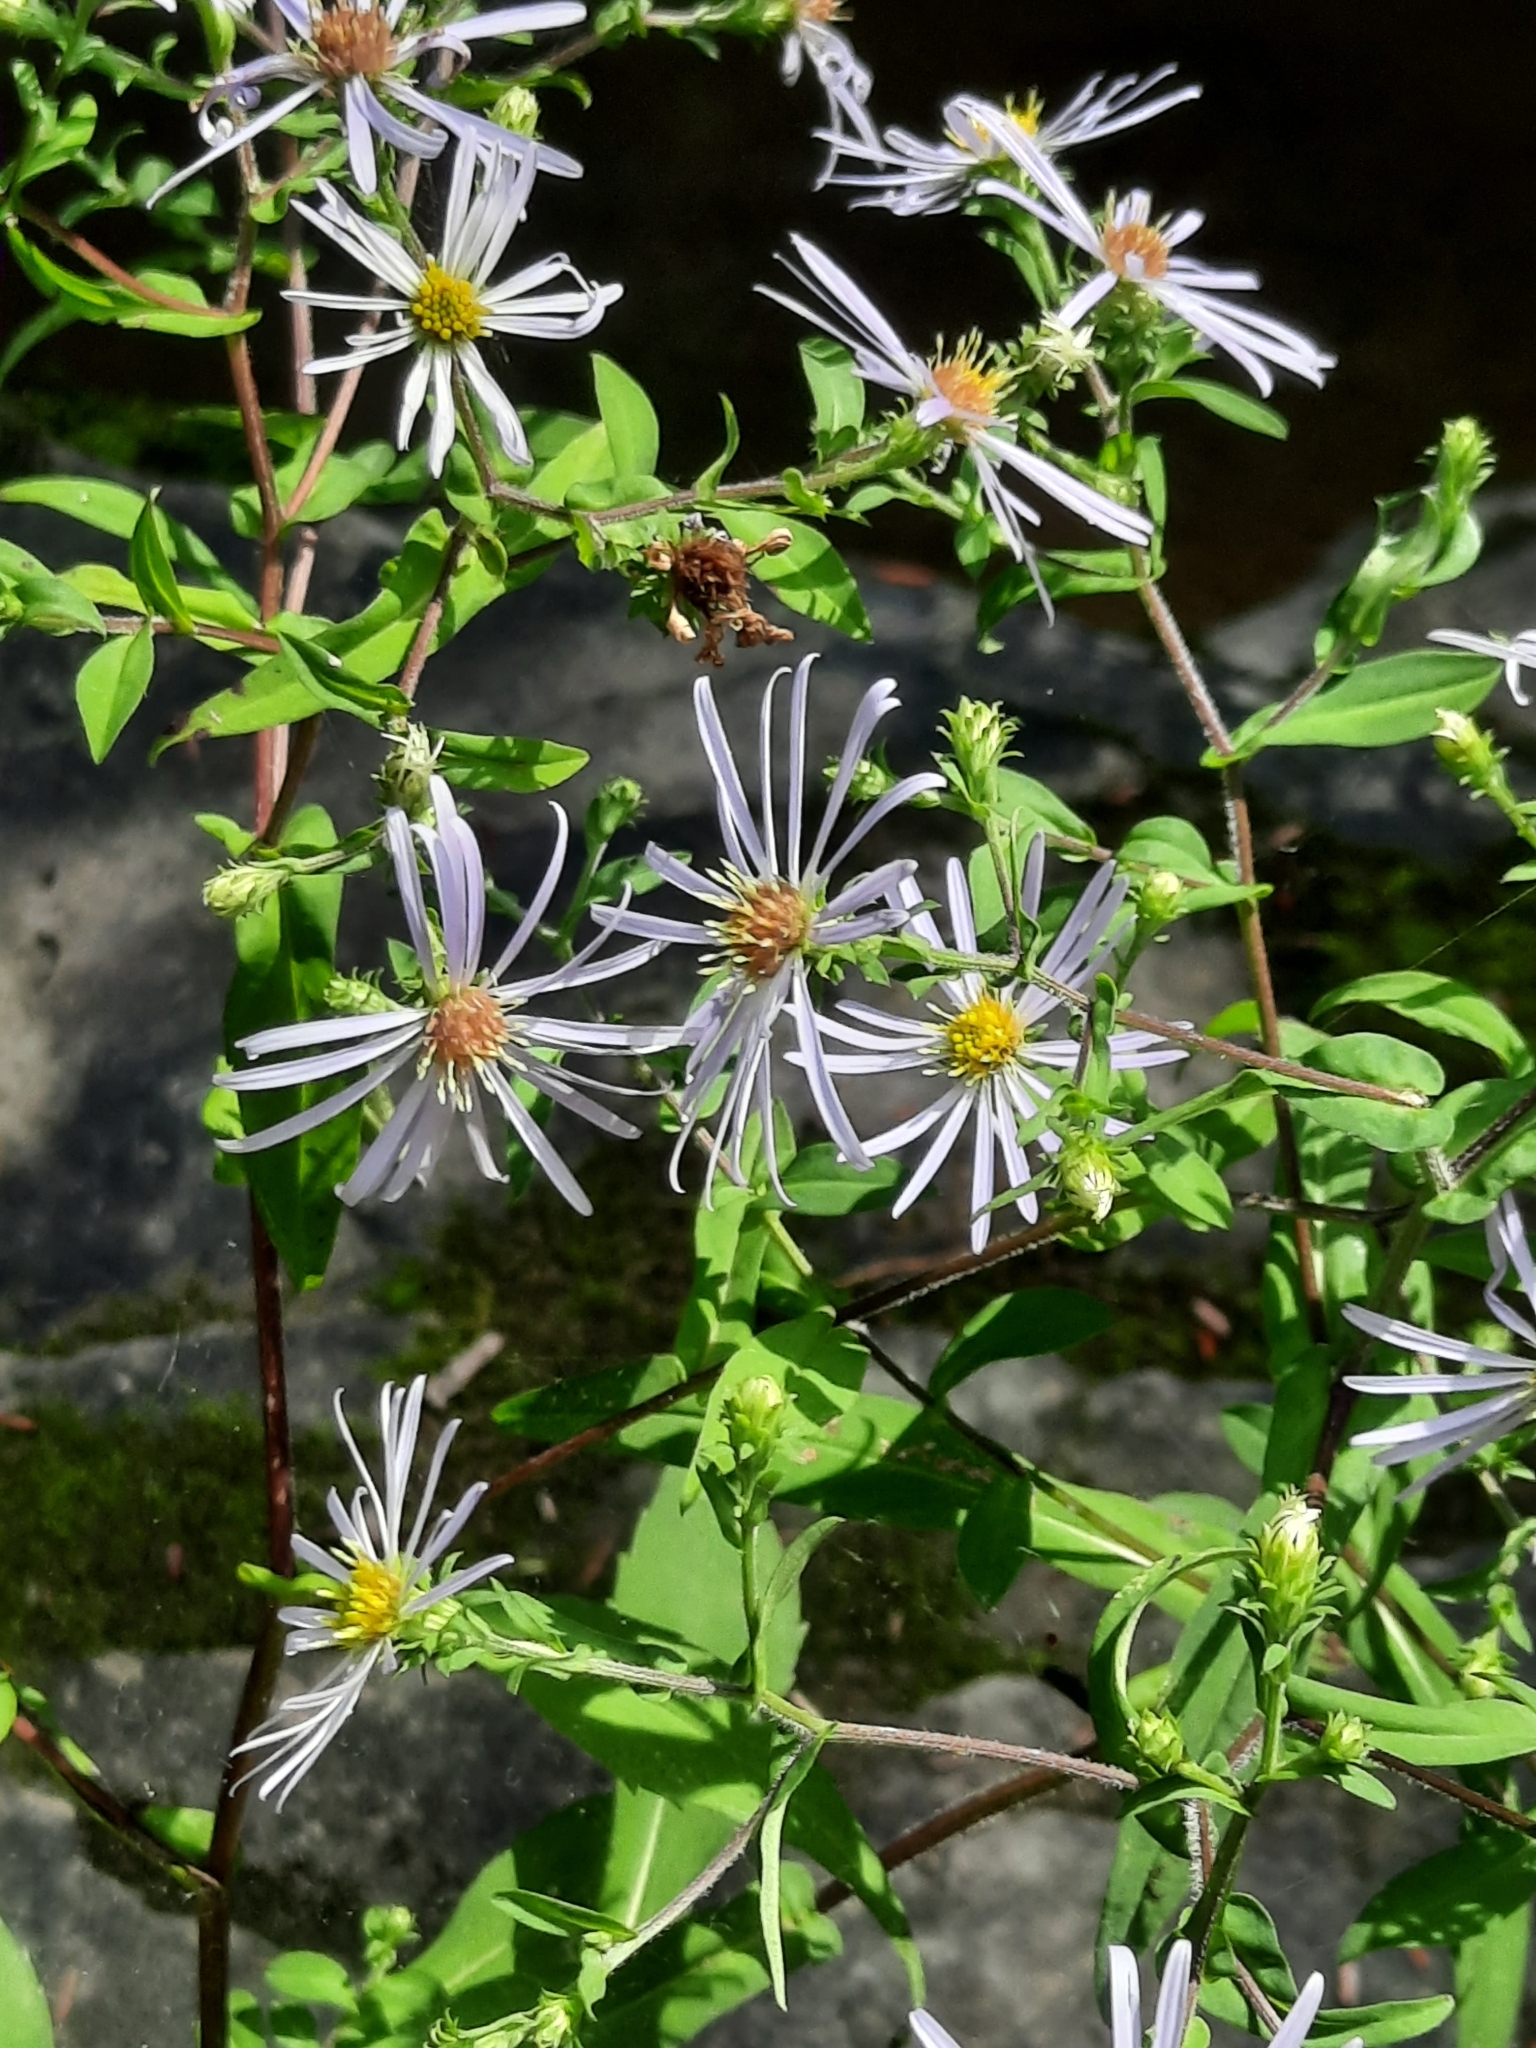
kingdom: Plantae
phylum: Tracheophyta
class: Magnoliopsida
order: Asterales
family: Asteraceae
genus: Symphyotrichum
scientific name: Symphyotrichum prenanthoides
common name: Crooked-stem aster
